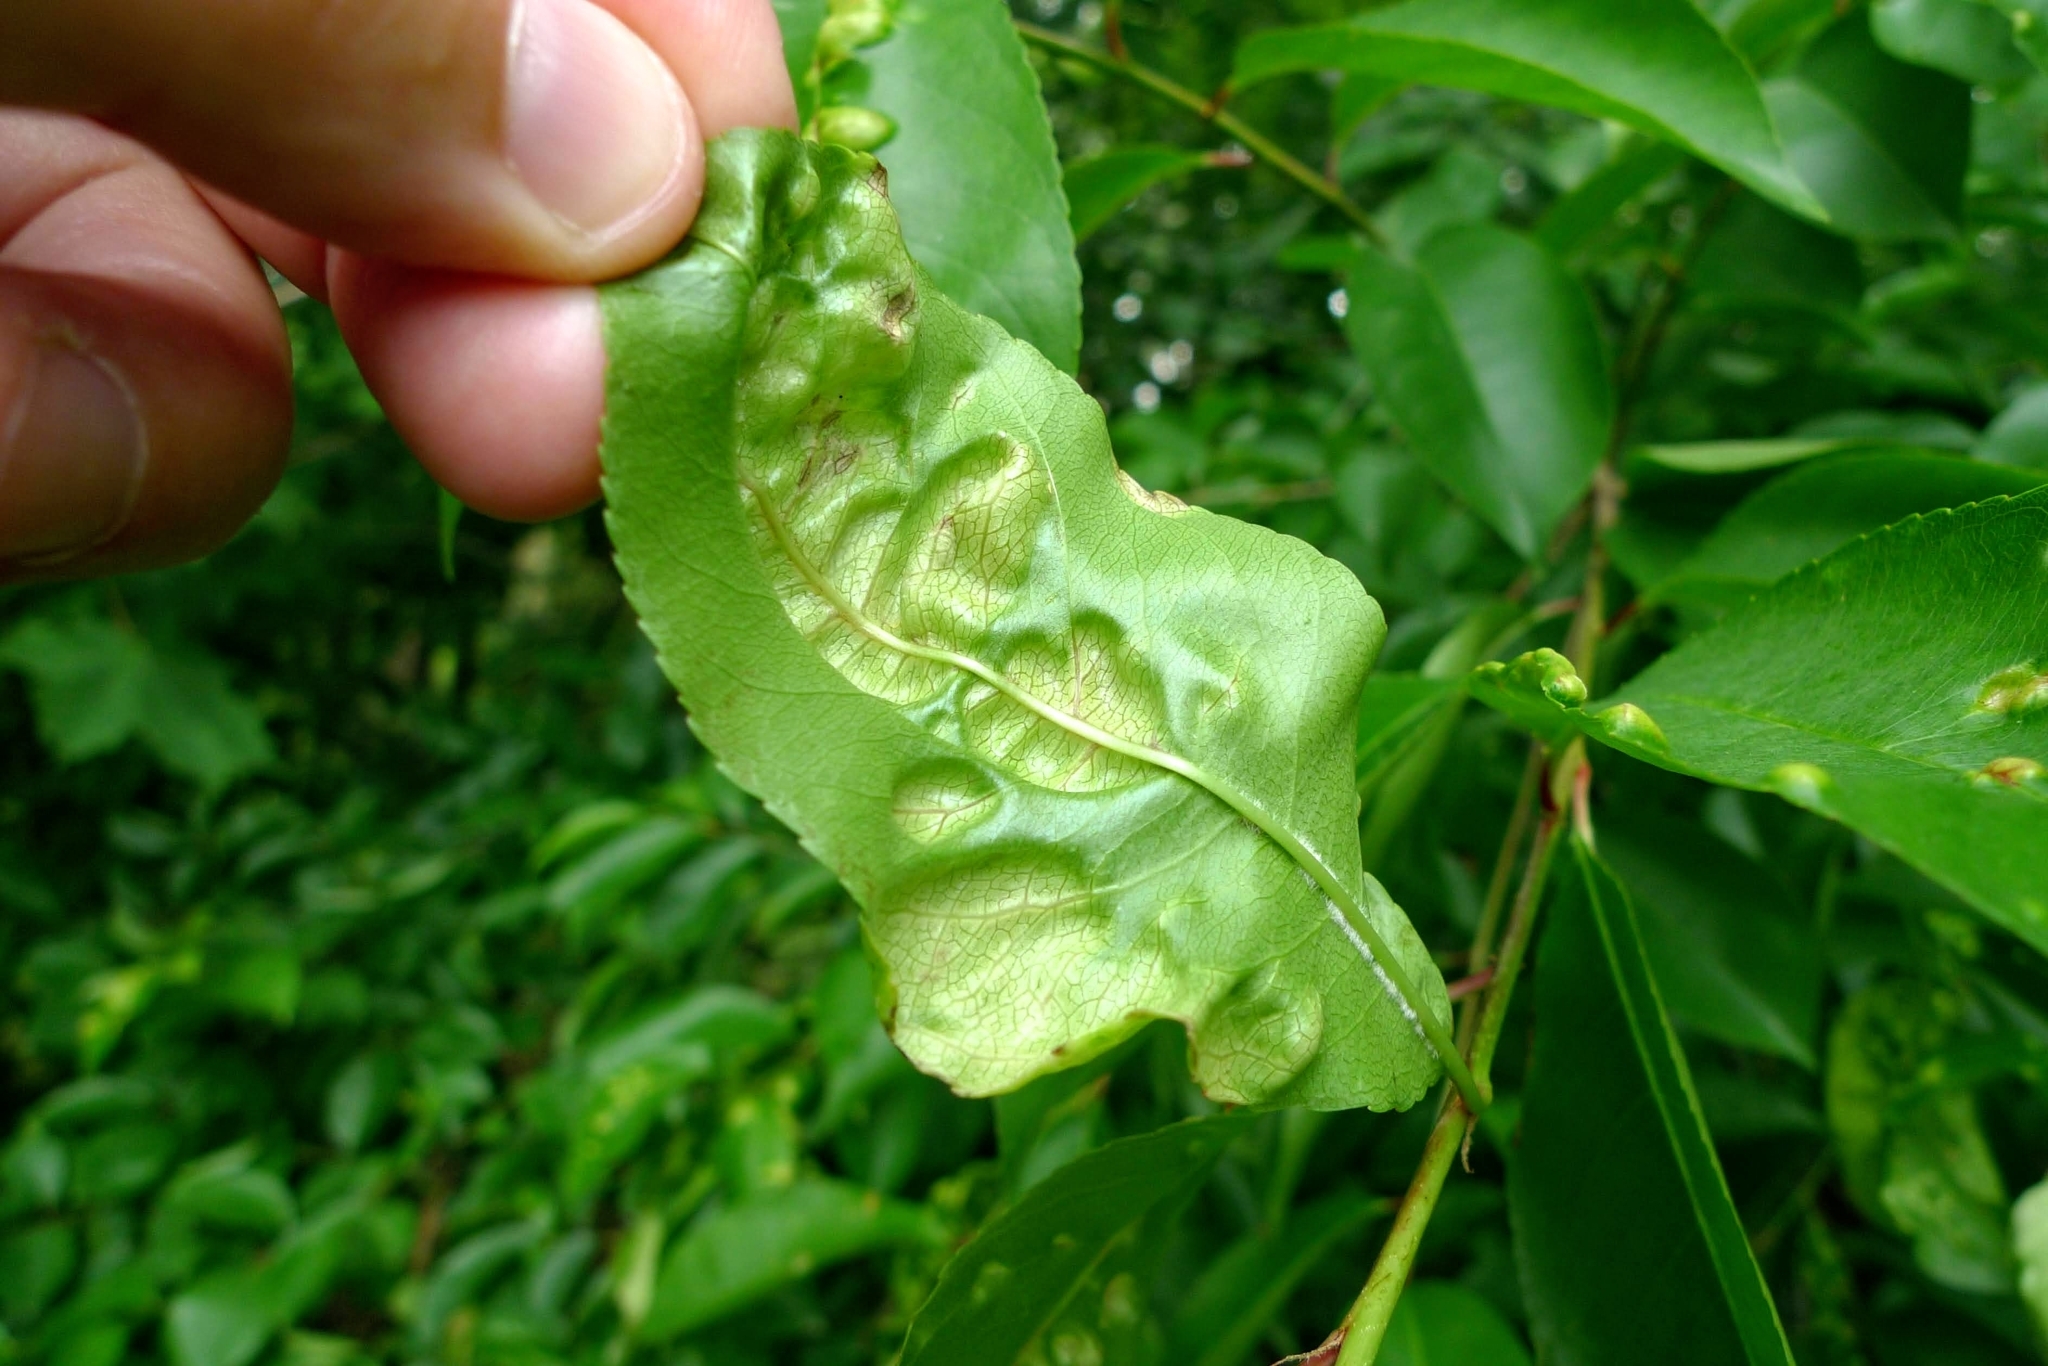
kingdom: Fungi
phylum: Ascomycota
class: Taphrinomycetes
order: Taphrinales
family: Taphrinaceae
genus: Taphrina
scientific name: Taphrina farlowii
